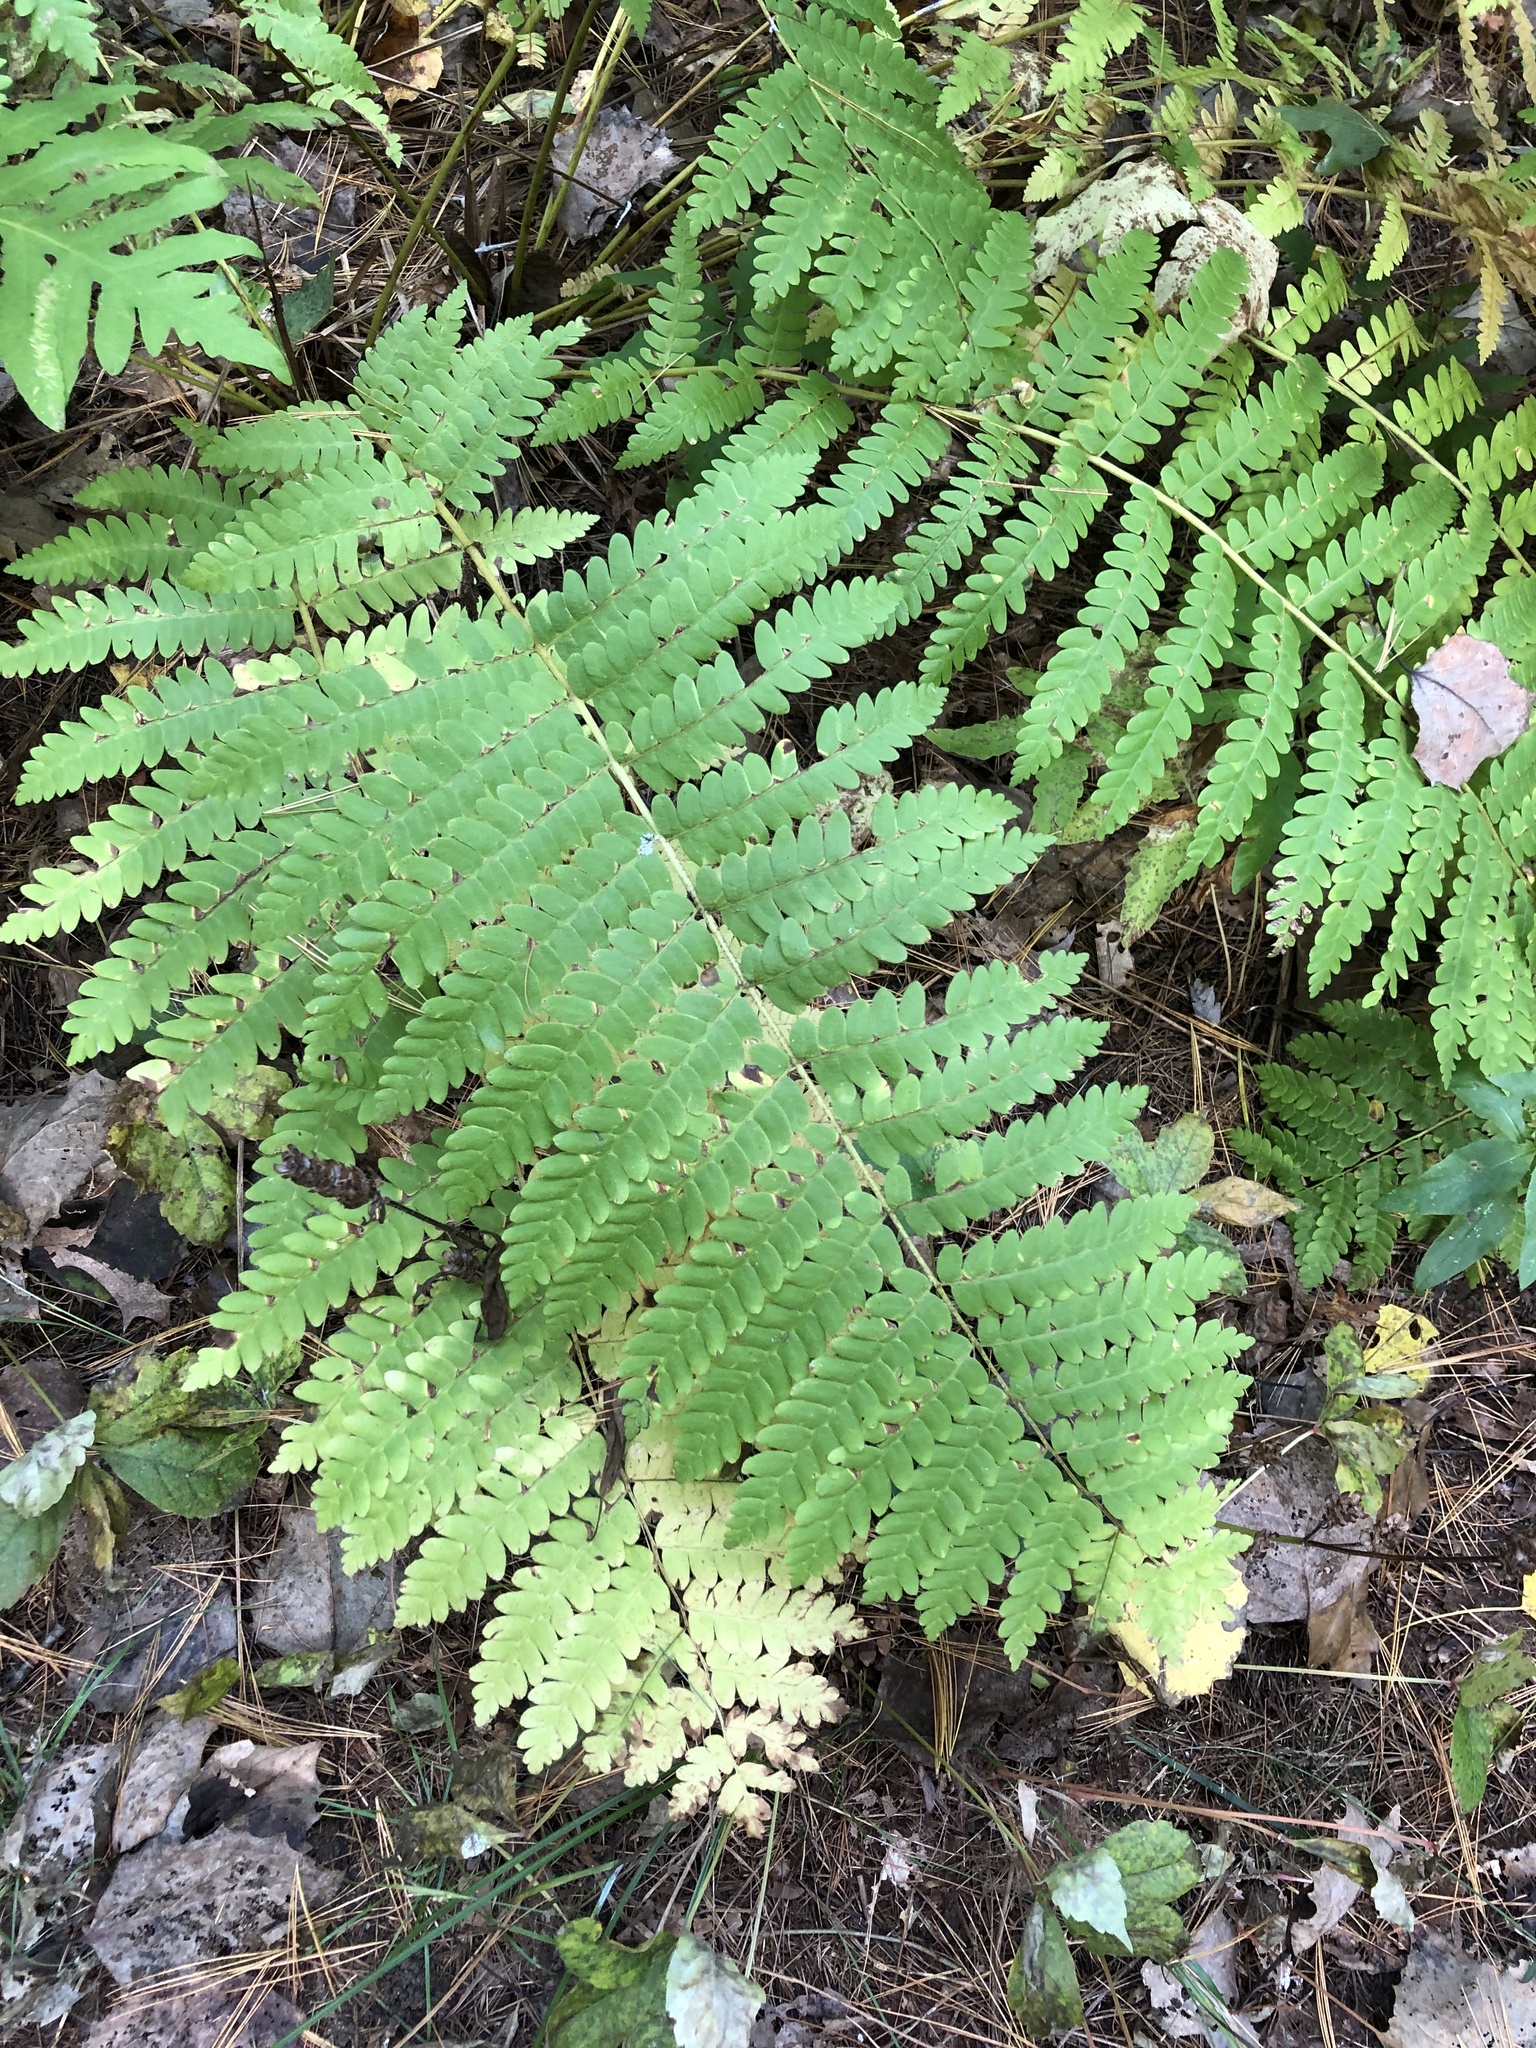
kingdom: Plantae
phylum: Tracheophyta
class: Polypodiopsida
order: Osmundales
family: Osmundaceae
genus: Claytosmunda
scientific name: Claytosmunda claytoniana
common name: Clayton's fern
